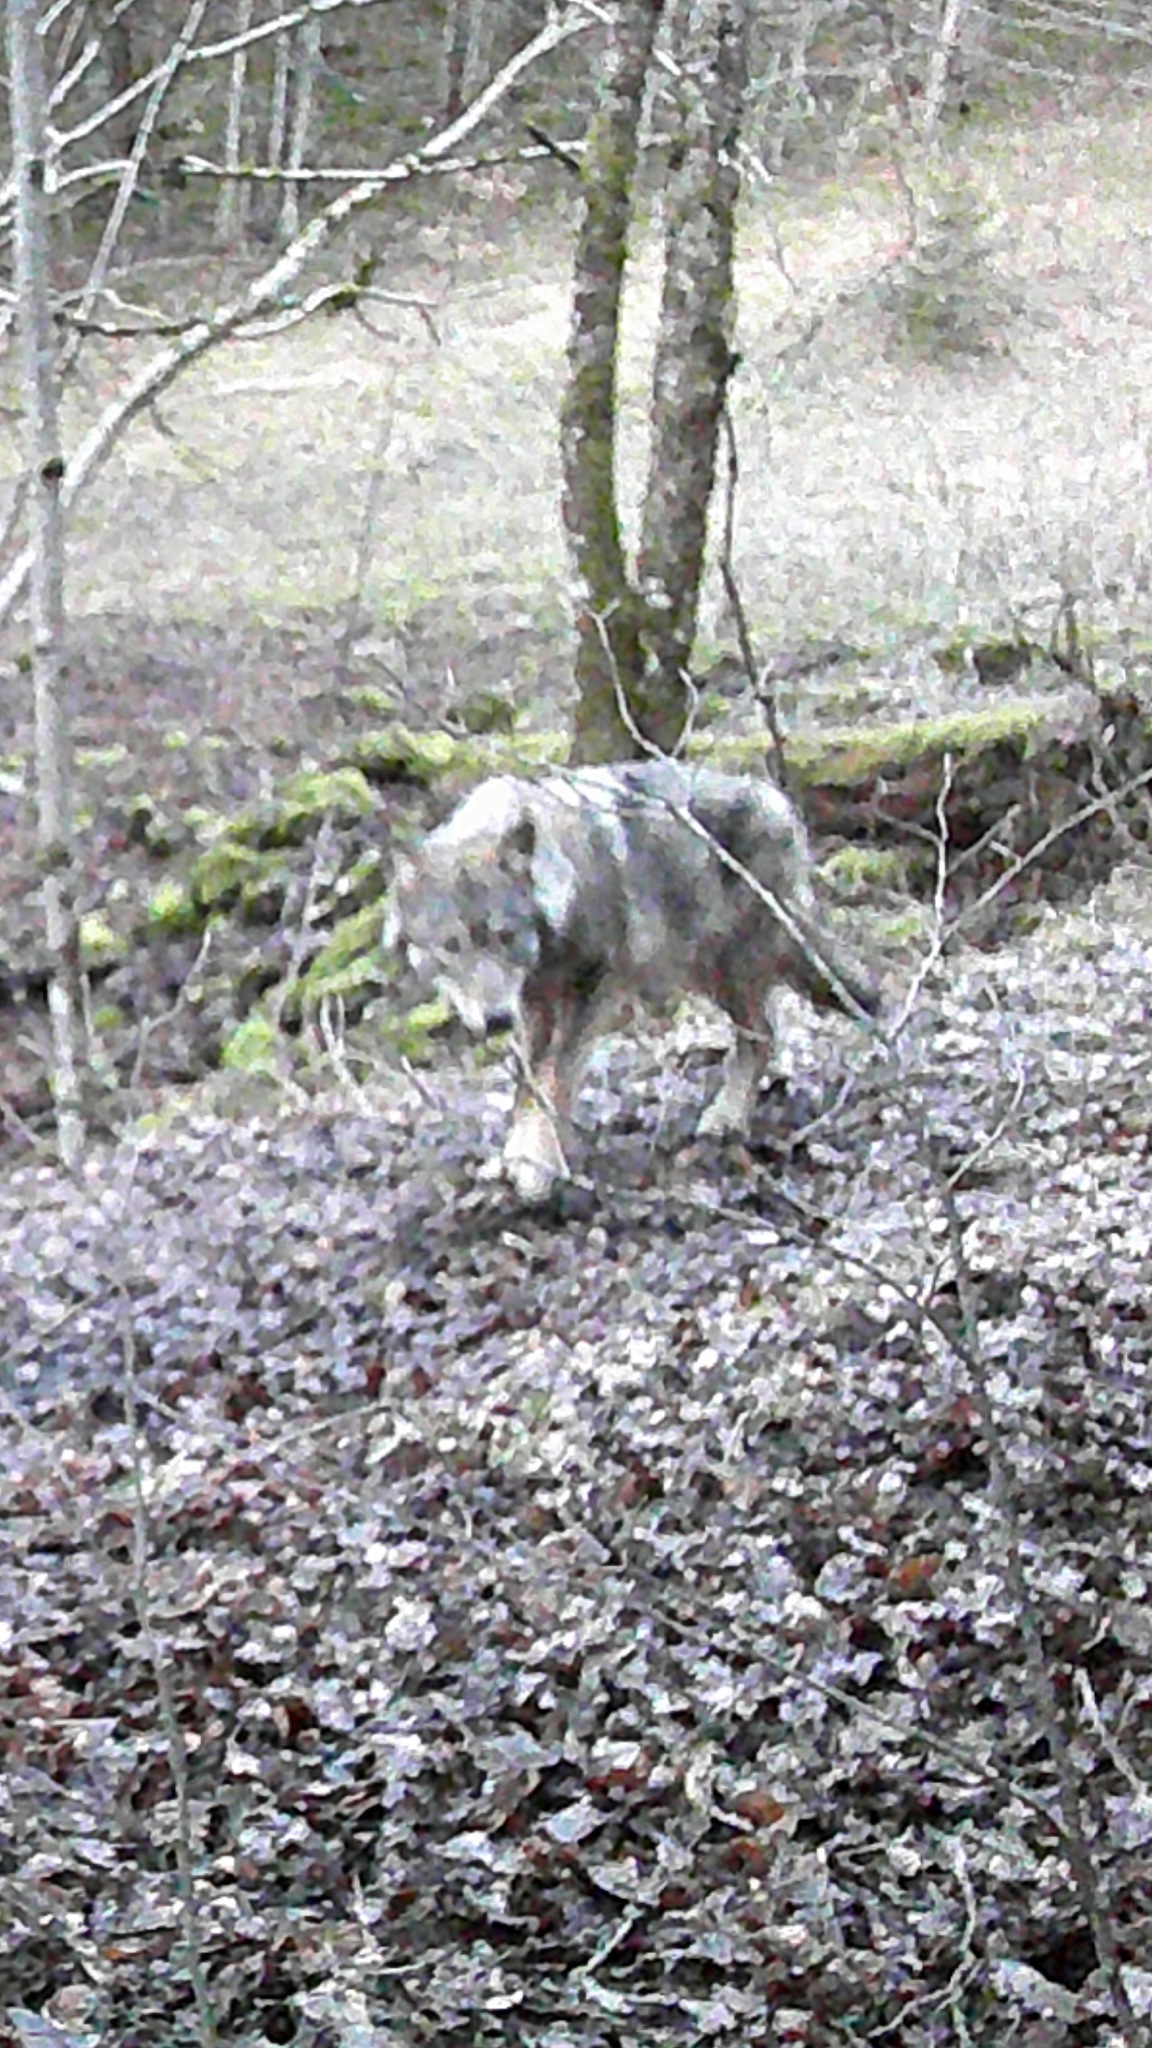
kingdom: Animalia
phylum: Chordata
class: Mammalia
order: Carnivora
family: Canidae
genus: Canis
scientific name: Canis lupus
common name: Gray wolf
